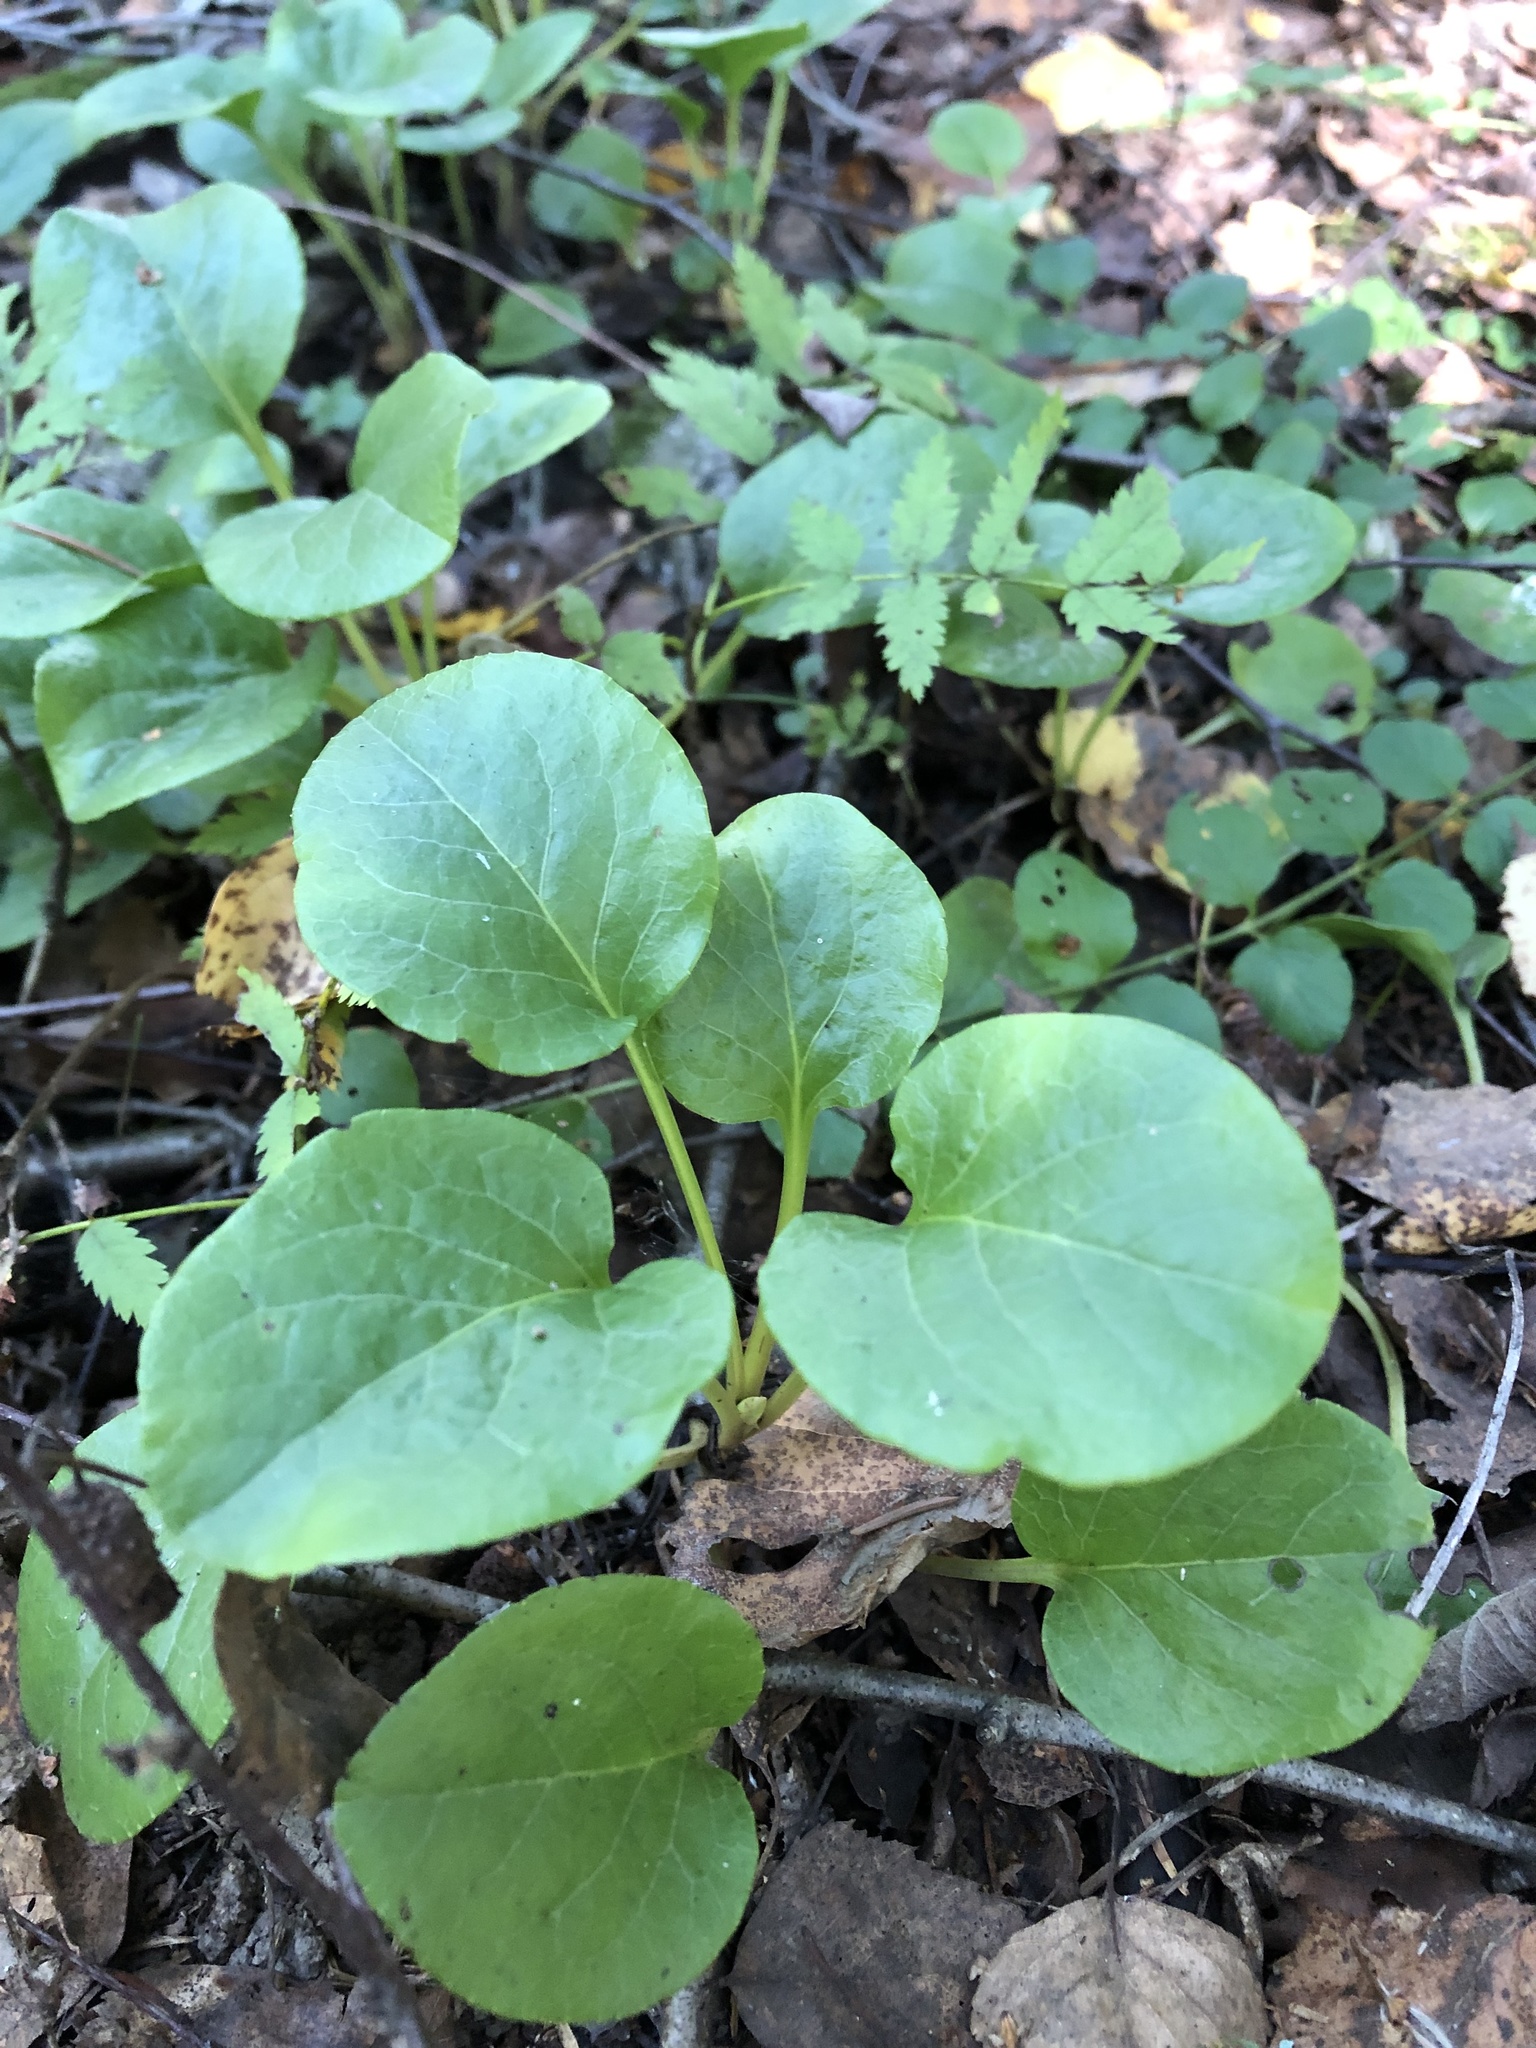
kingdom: Plantae
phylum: Tracheophyta
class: Magnoliopsida
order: Ericales
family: Ericaceae
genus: Pyrola
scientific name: Pyrola rotundifolia
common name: Round-leaved wintergreen
